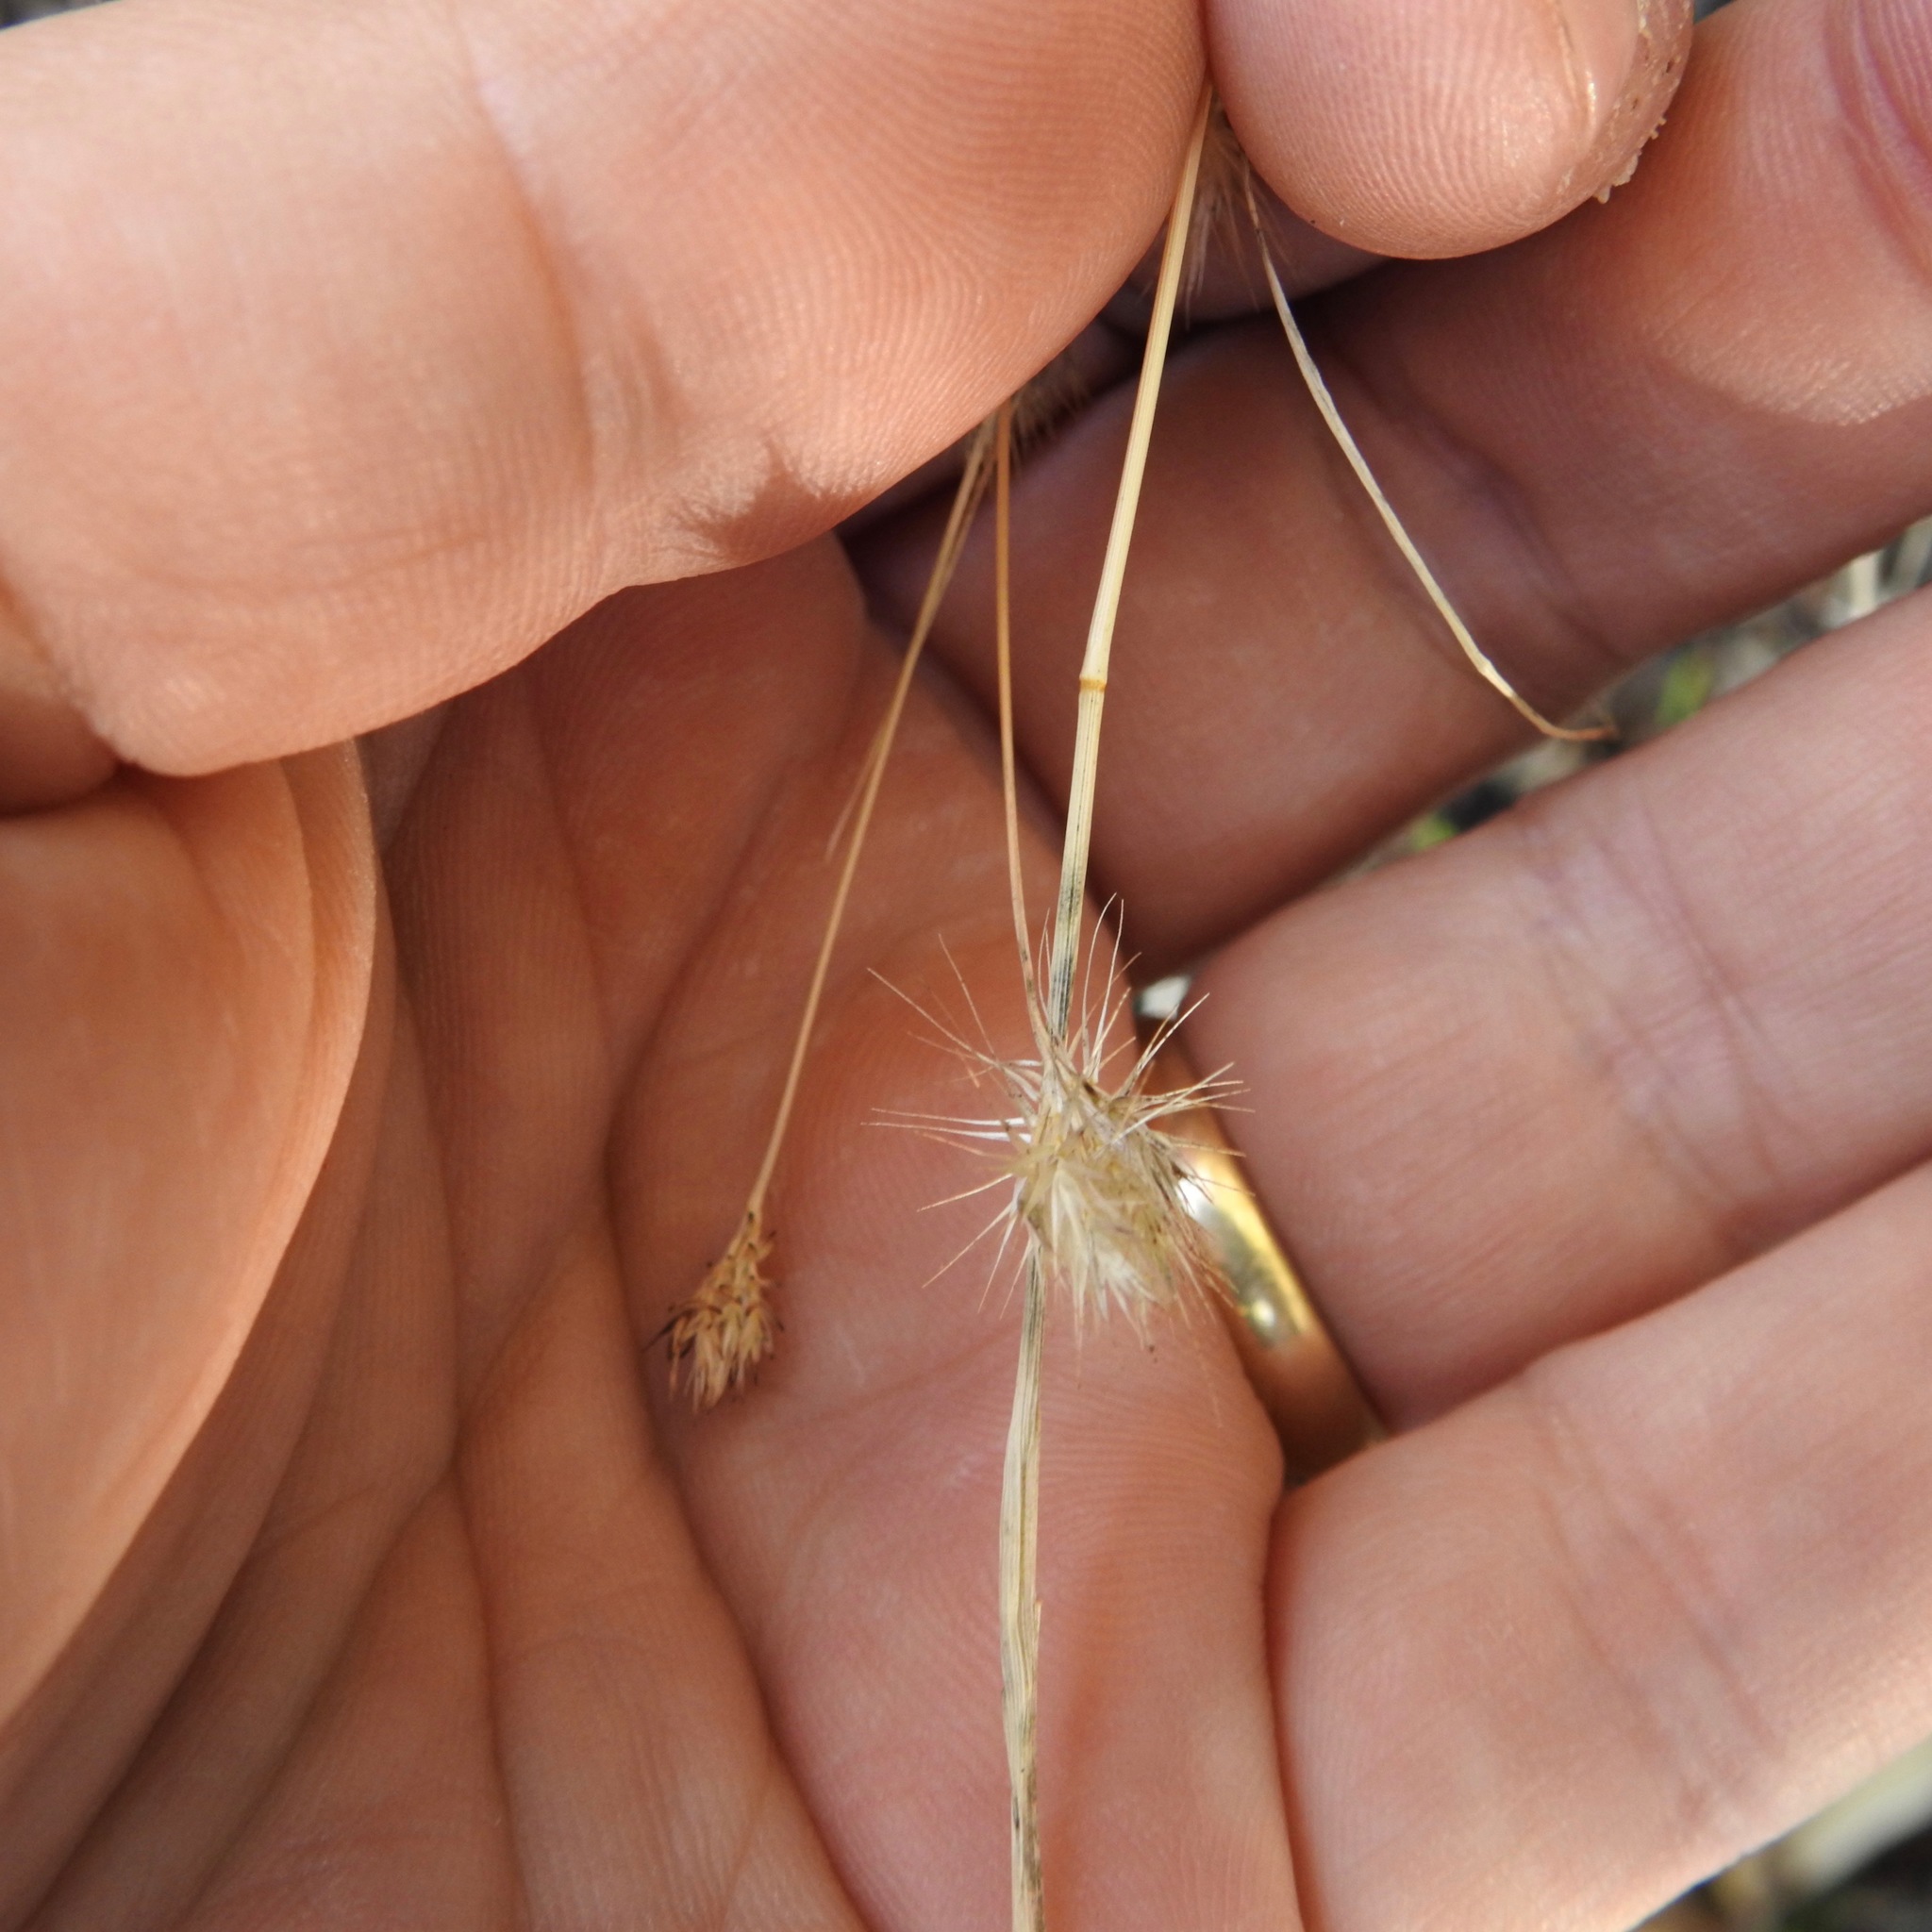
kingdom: Plantae
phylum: Tracheophyta
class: Liliopsida
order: Poales
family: Poaceae
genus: Cynosurus
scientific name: Cynosurus echinatus
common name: Rough dog's-tail
